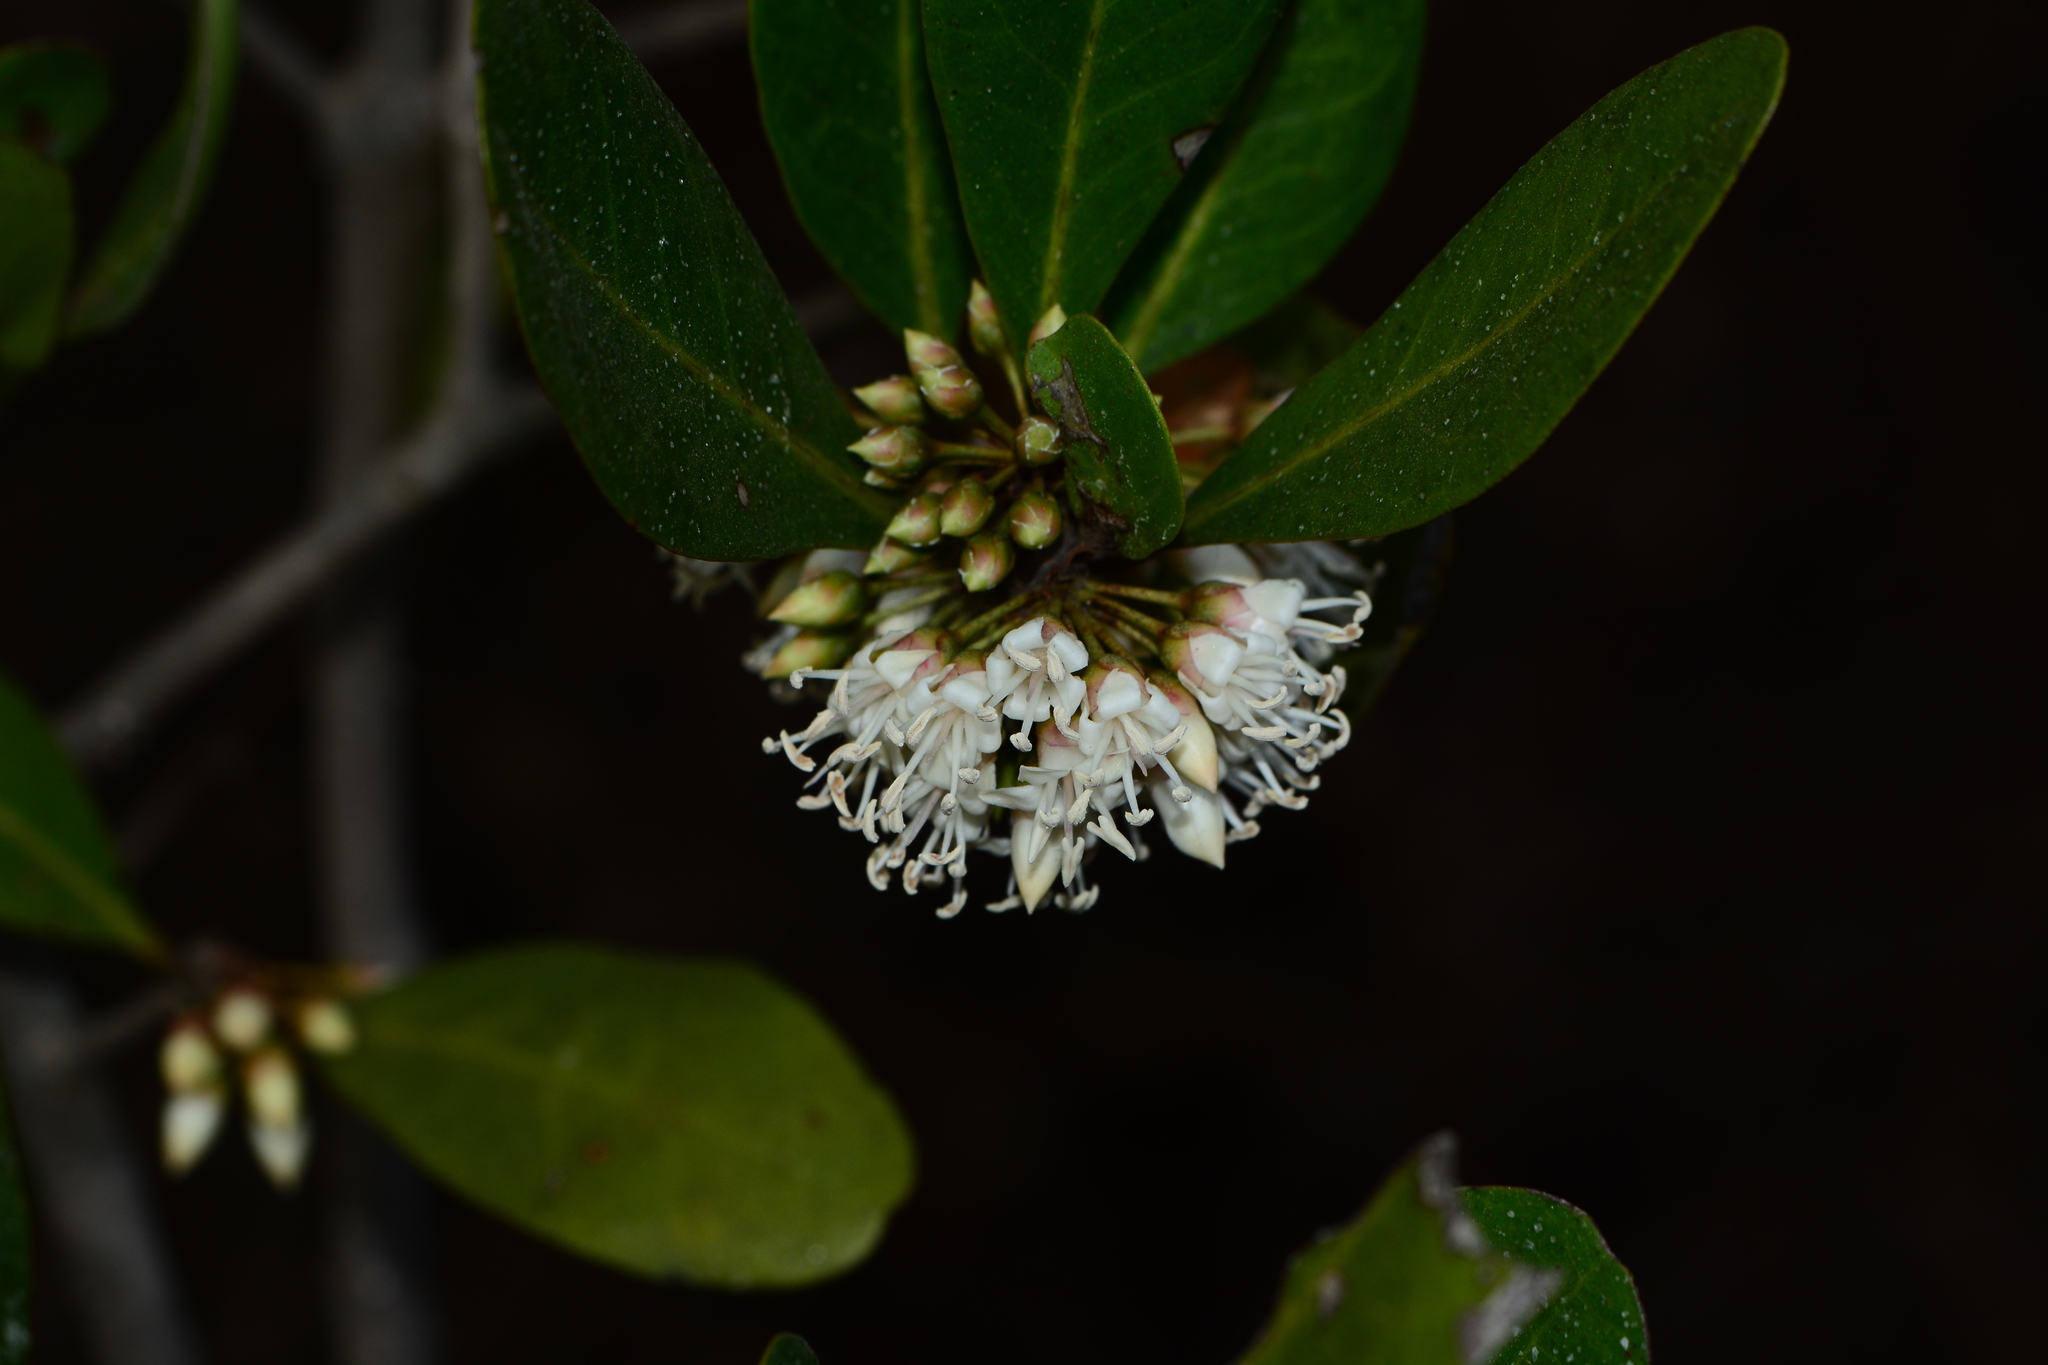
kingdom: Plantae
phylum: Tracheophyta
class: Magnoliopsida
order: Ericales
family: Primulaceae
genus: Aegiceras
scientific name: Aegiceras corniculatum
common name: River mangrove
